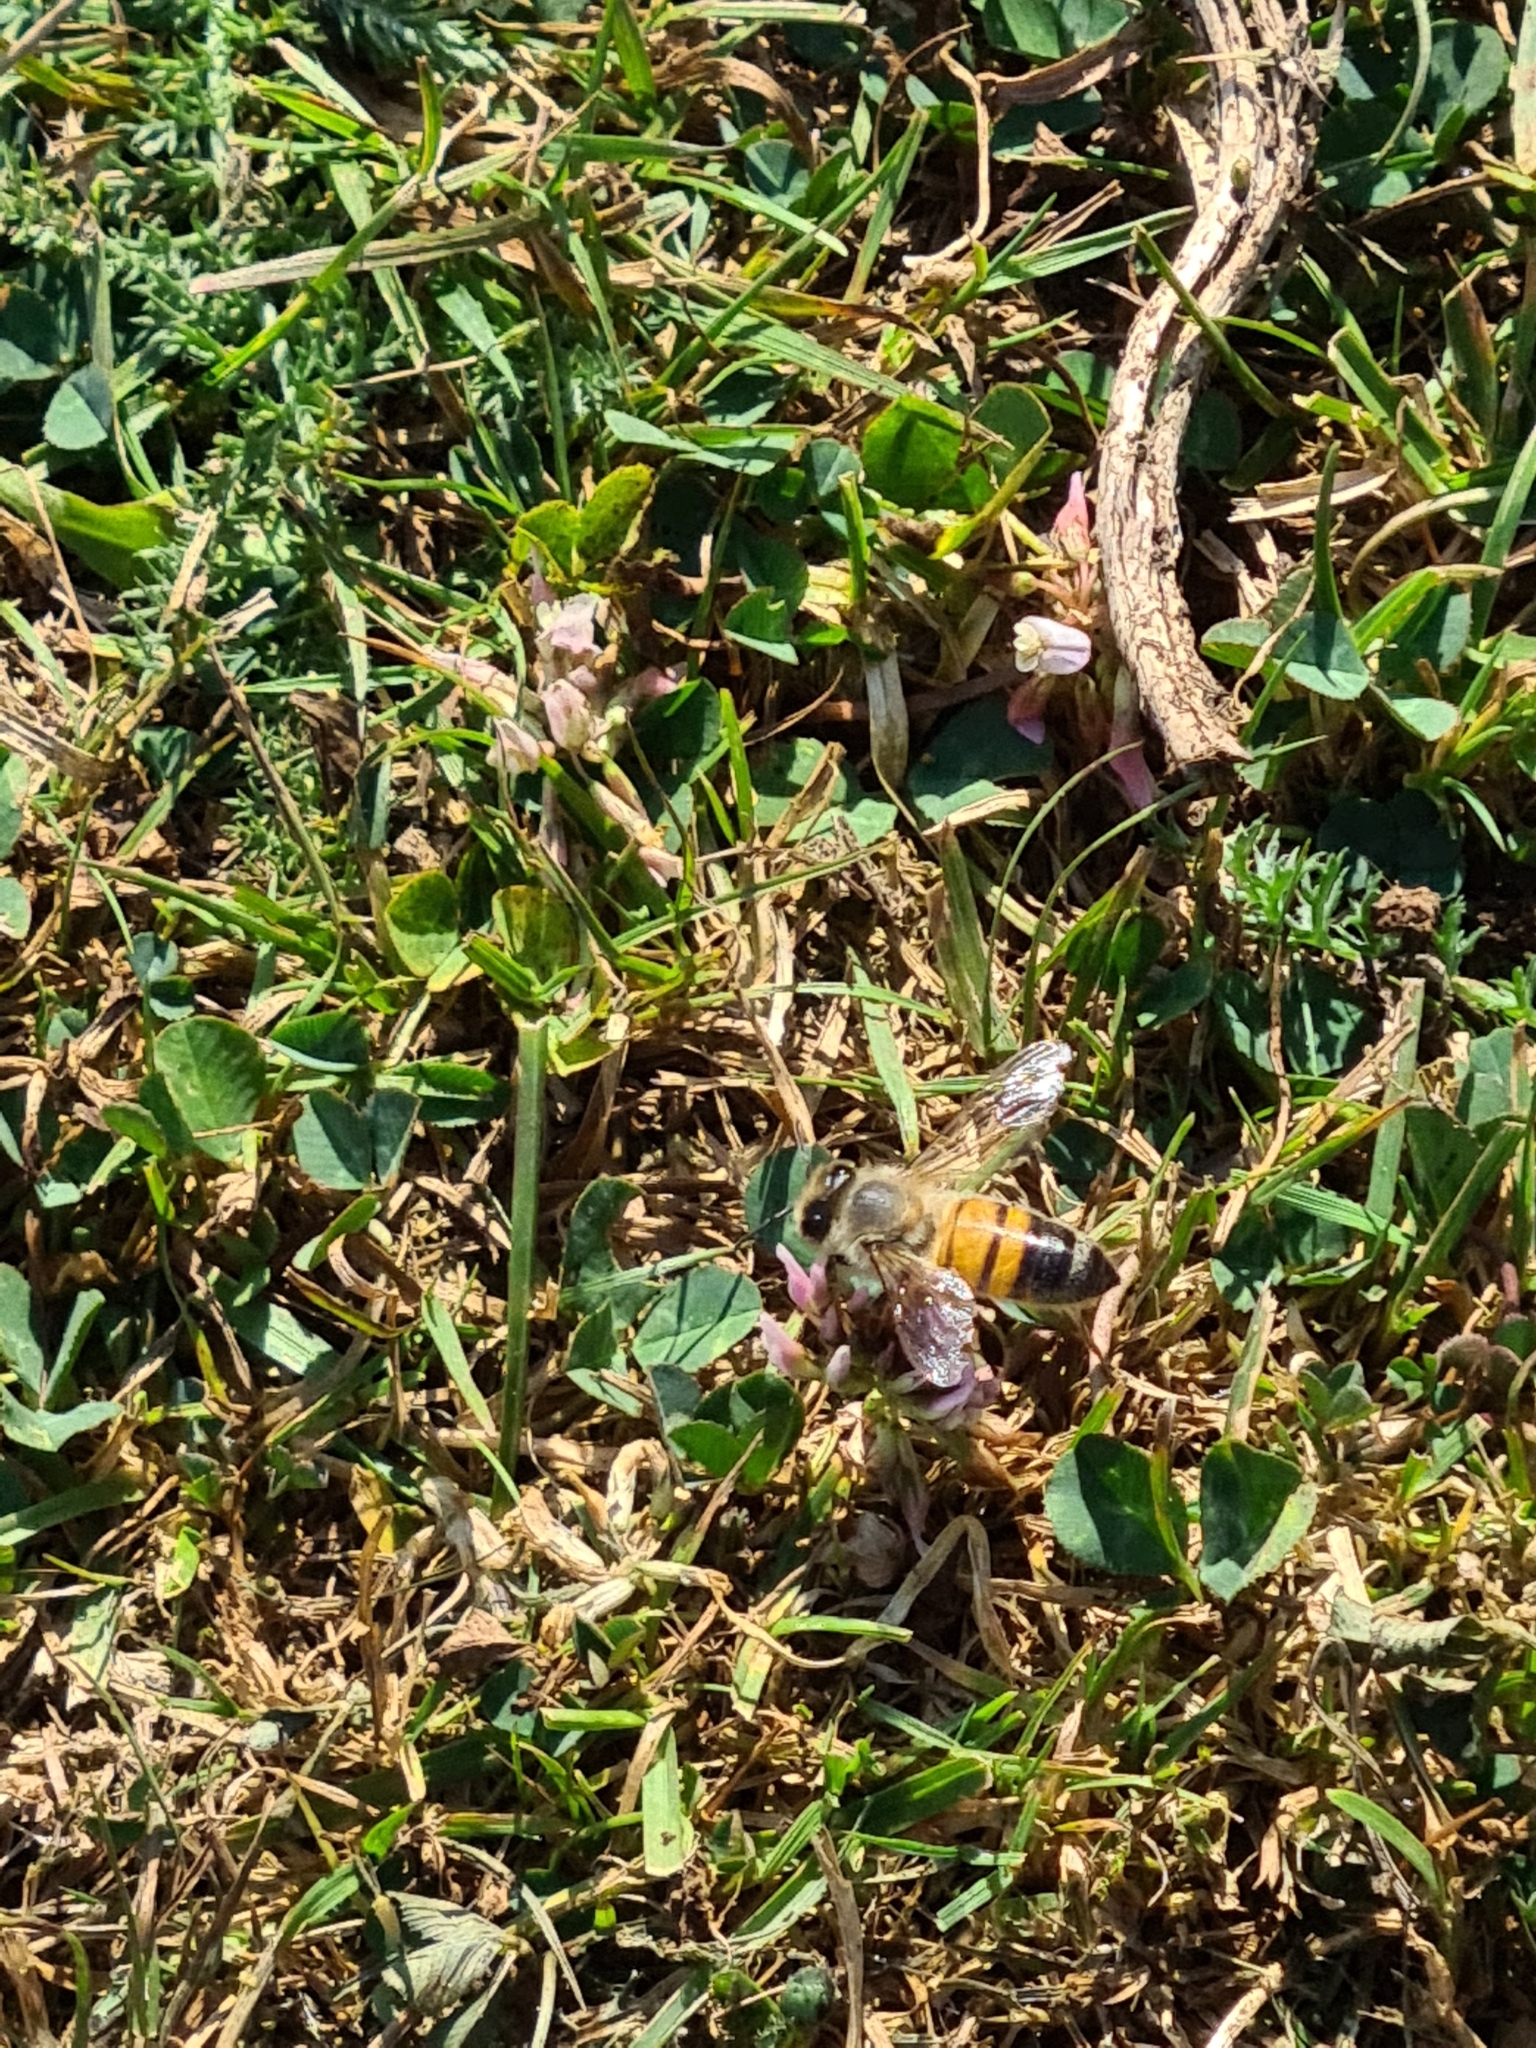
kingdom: Animalia
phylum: Arthropoda
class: Insecta
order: Hymenoptera
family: Apidae
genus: Apis
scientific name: Apis mellifera
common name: Honey bee
